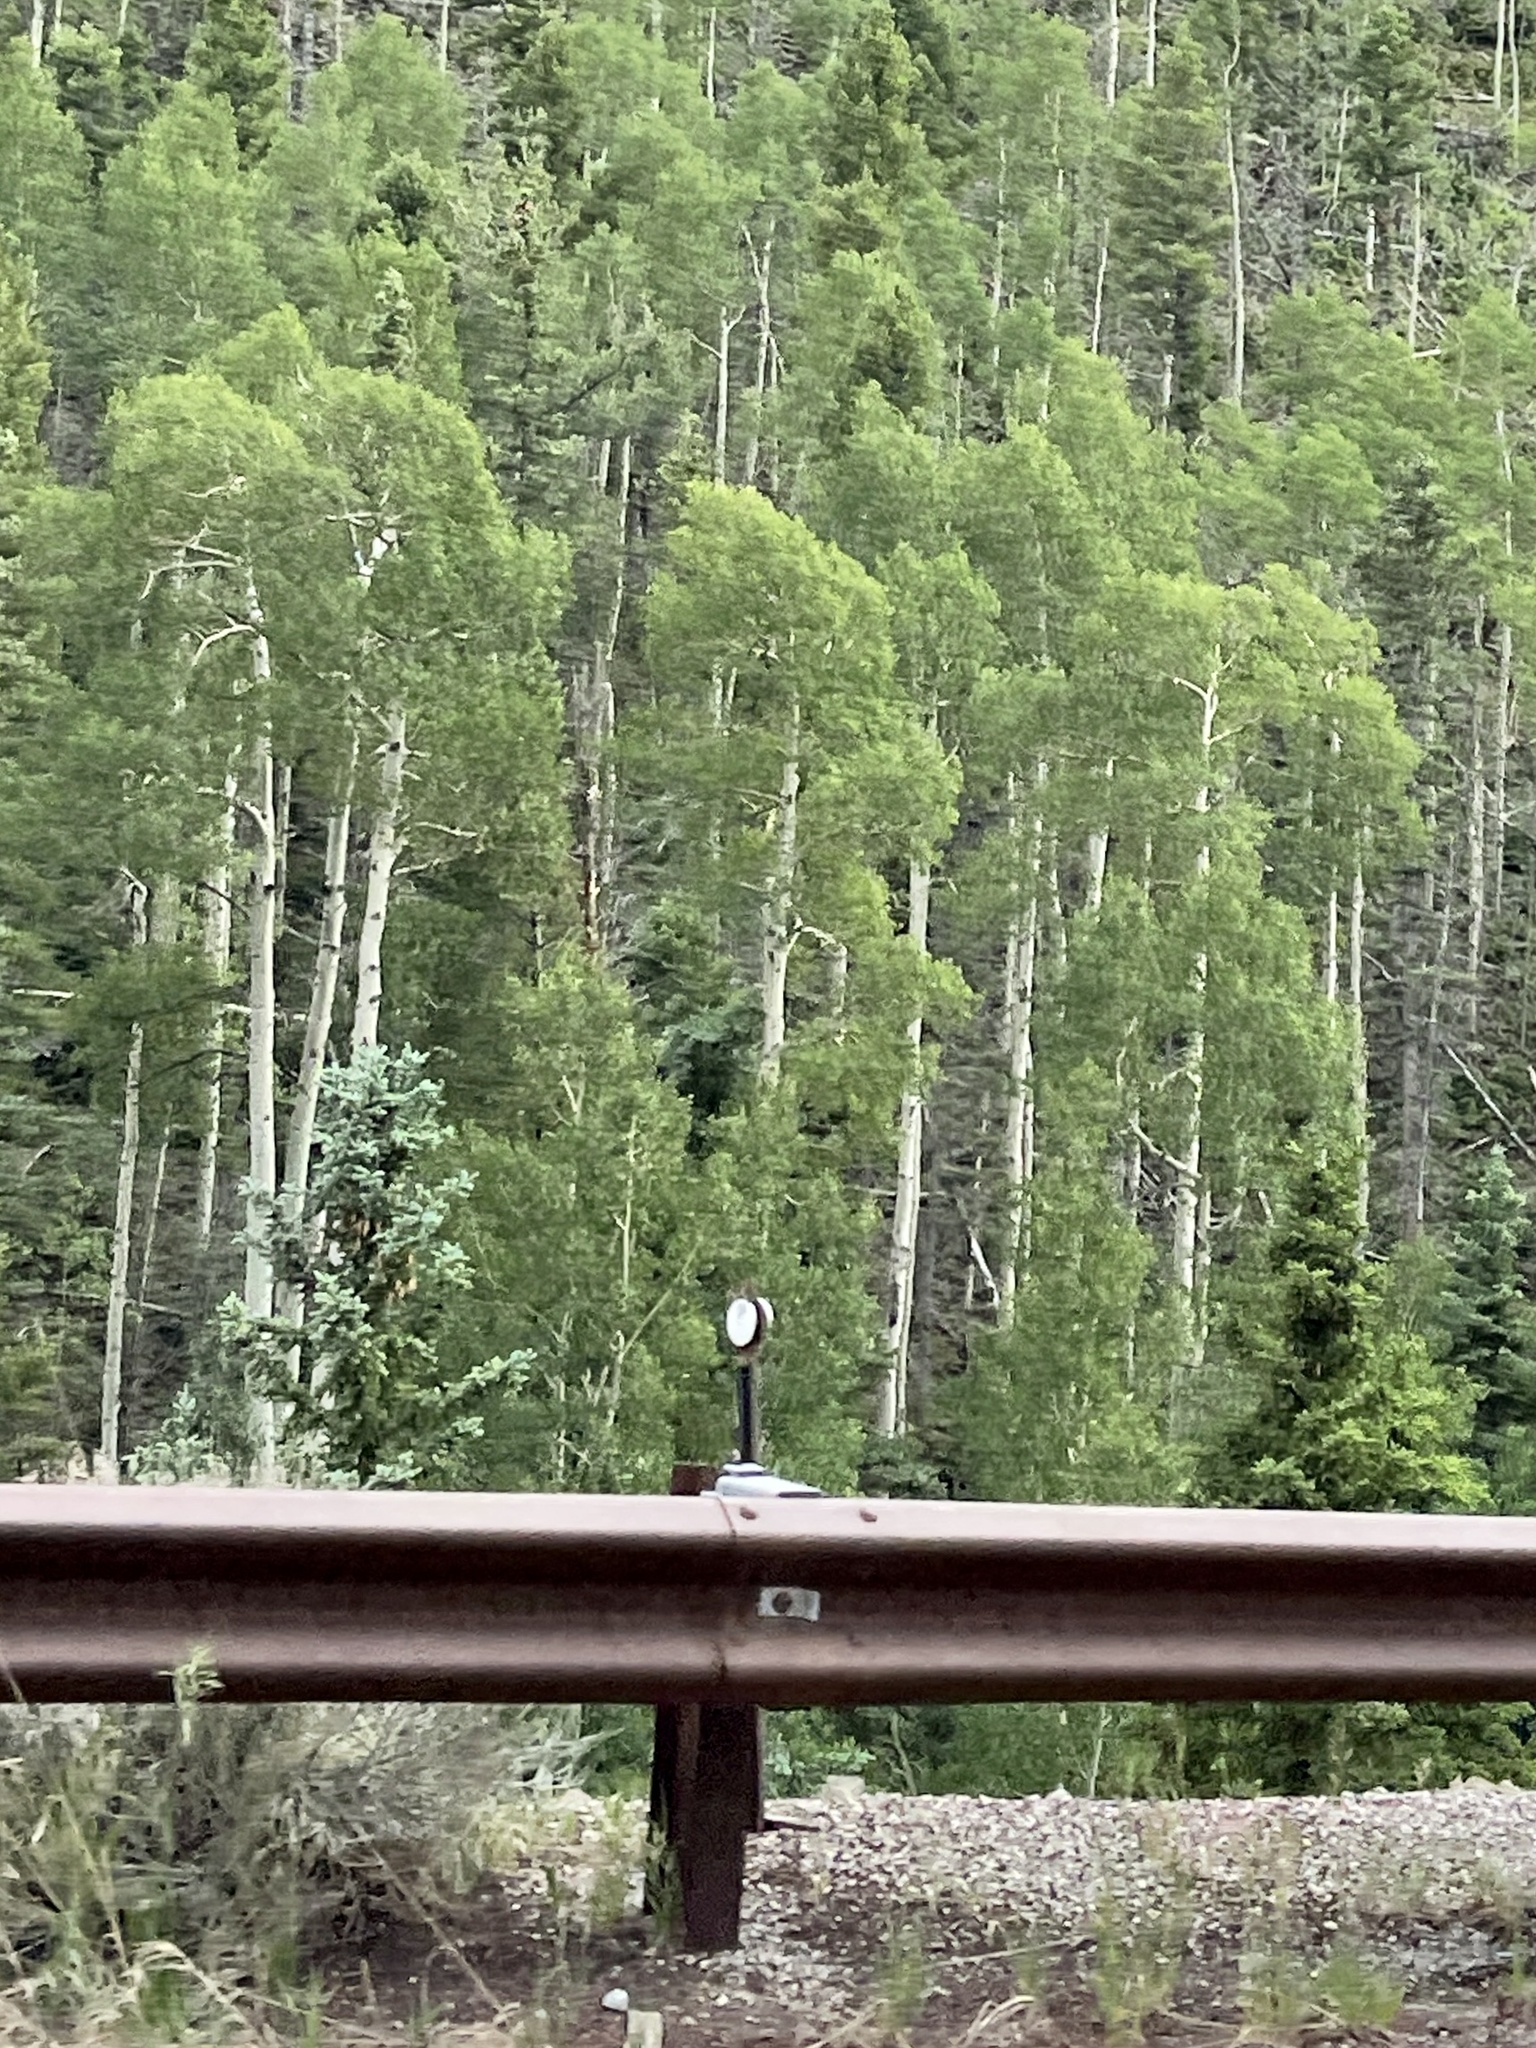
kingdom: Plantae
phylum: Tracheophyta
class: Magnoliopsida
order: Malpighiales
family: Salicaceae
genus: Populus
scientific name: Populus tremuloides
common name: Quaking aspen
